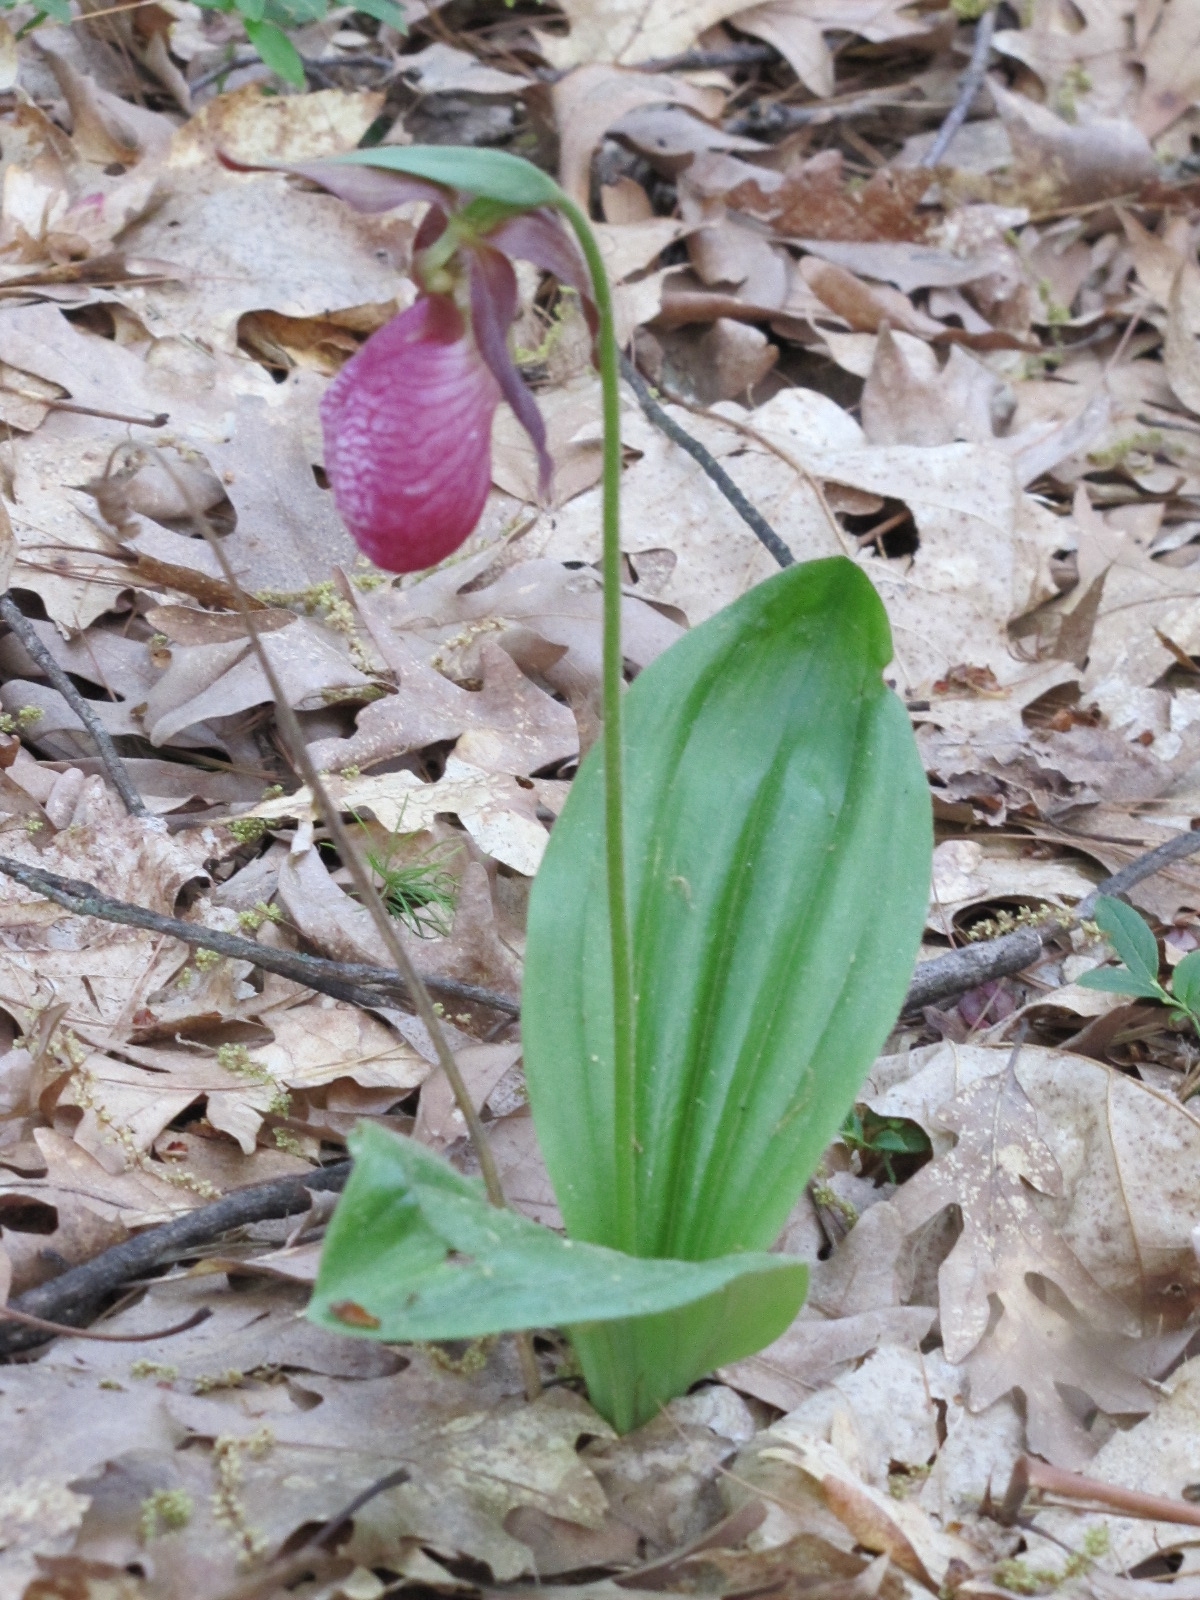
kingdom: Plantae
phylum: Tracheophyta
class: Liliopsida
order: Asparagales
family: Orchidaceae
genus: Cypripedium
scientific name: Cypripedium acaule
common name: Pink lady's-slipper
